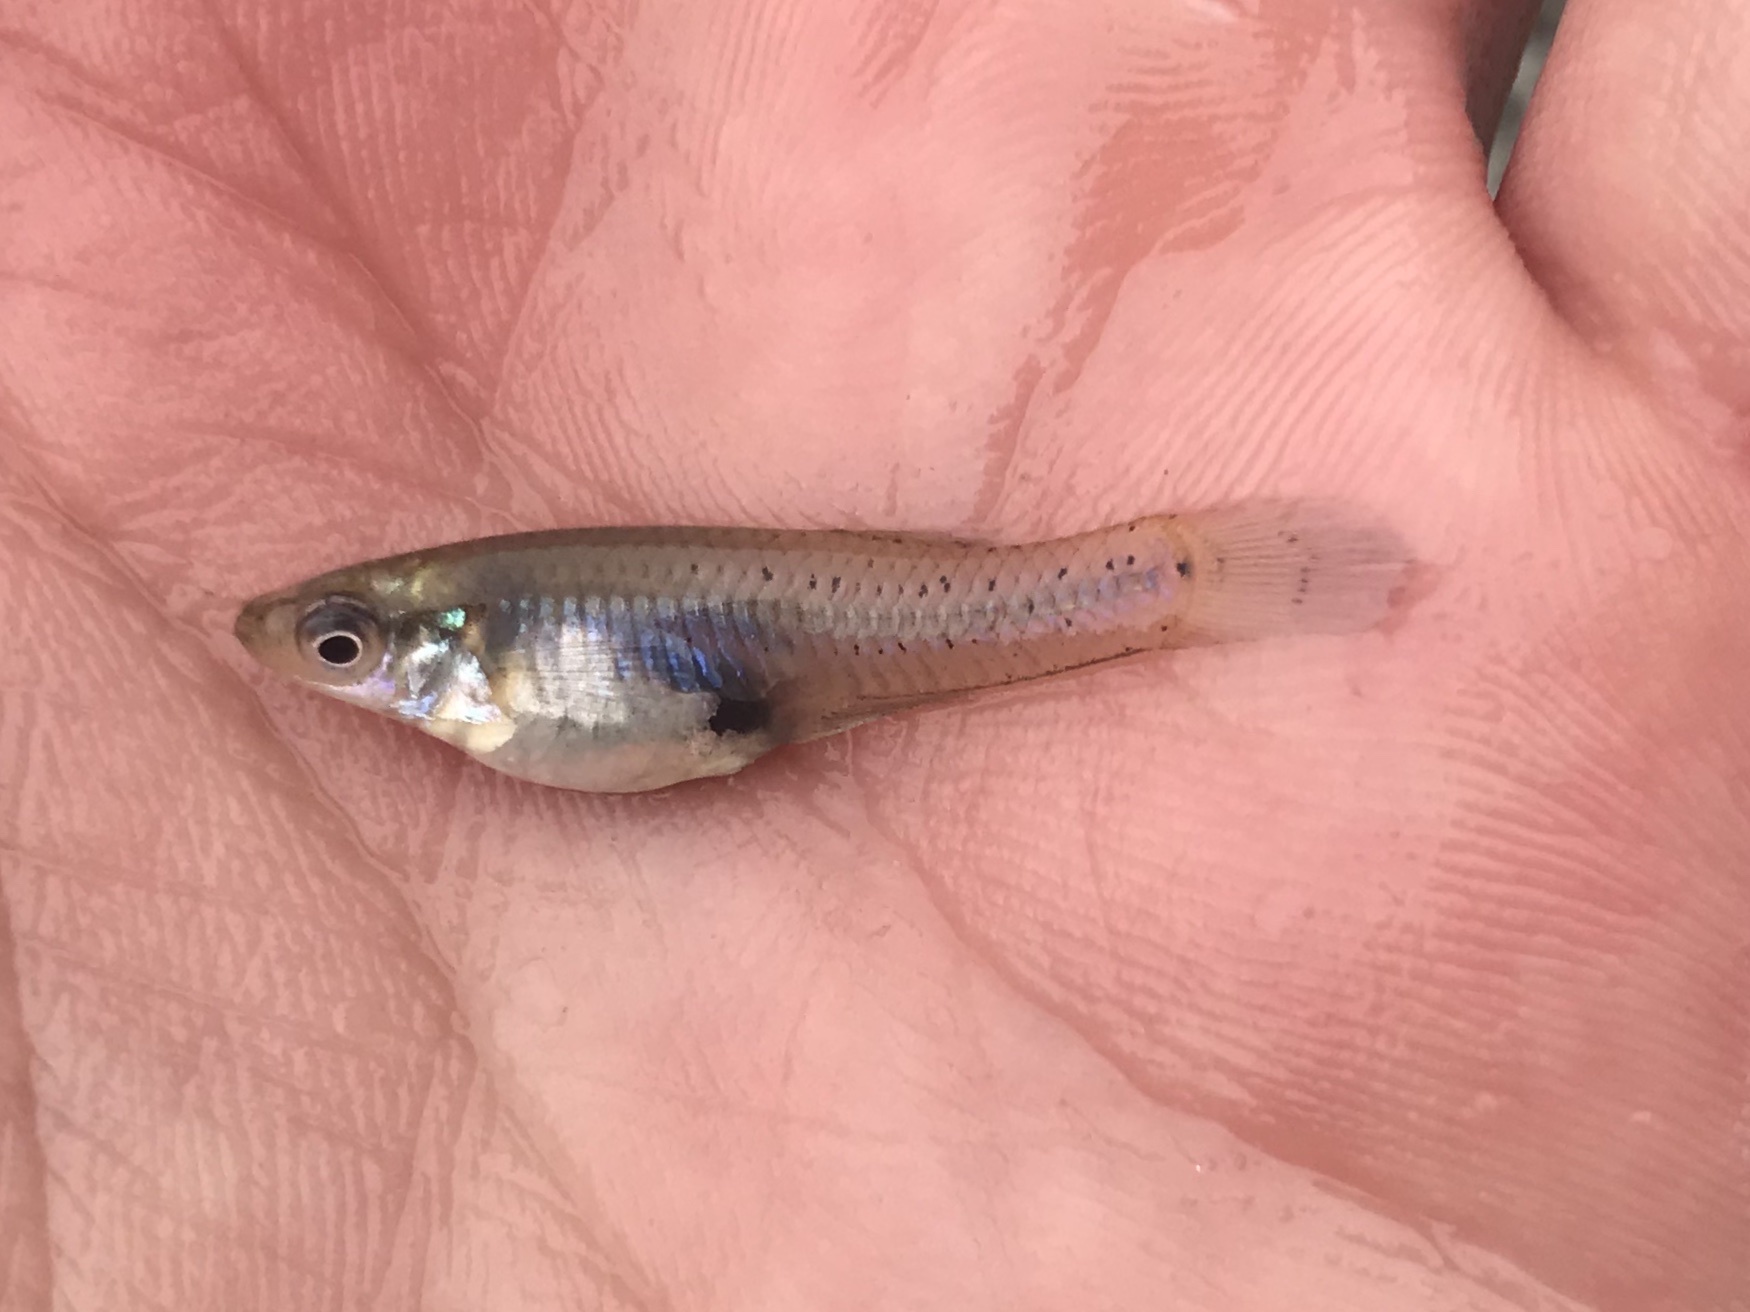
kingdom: Animalia
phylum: Chordata
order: Cyprinodontiformes
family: Poeciliidae
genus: Gambusia
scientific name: Gambusia affinis
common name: Mosquitofish
